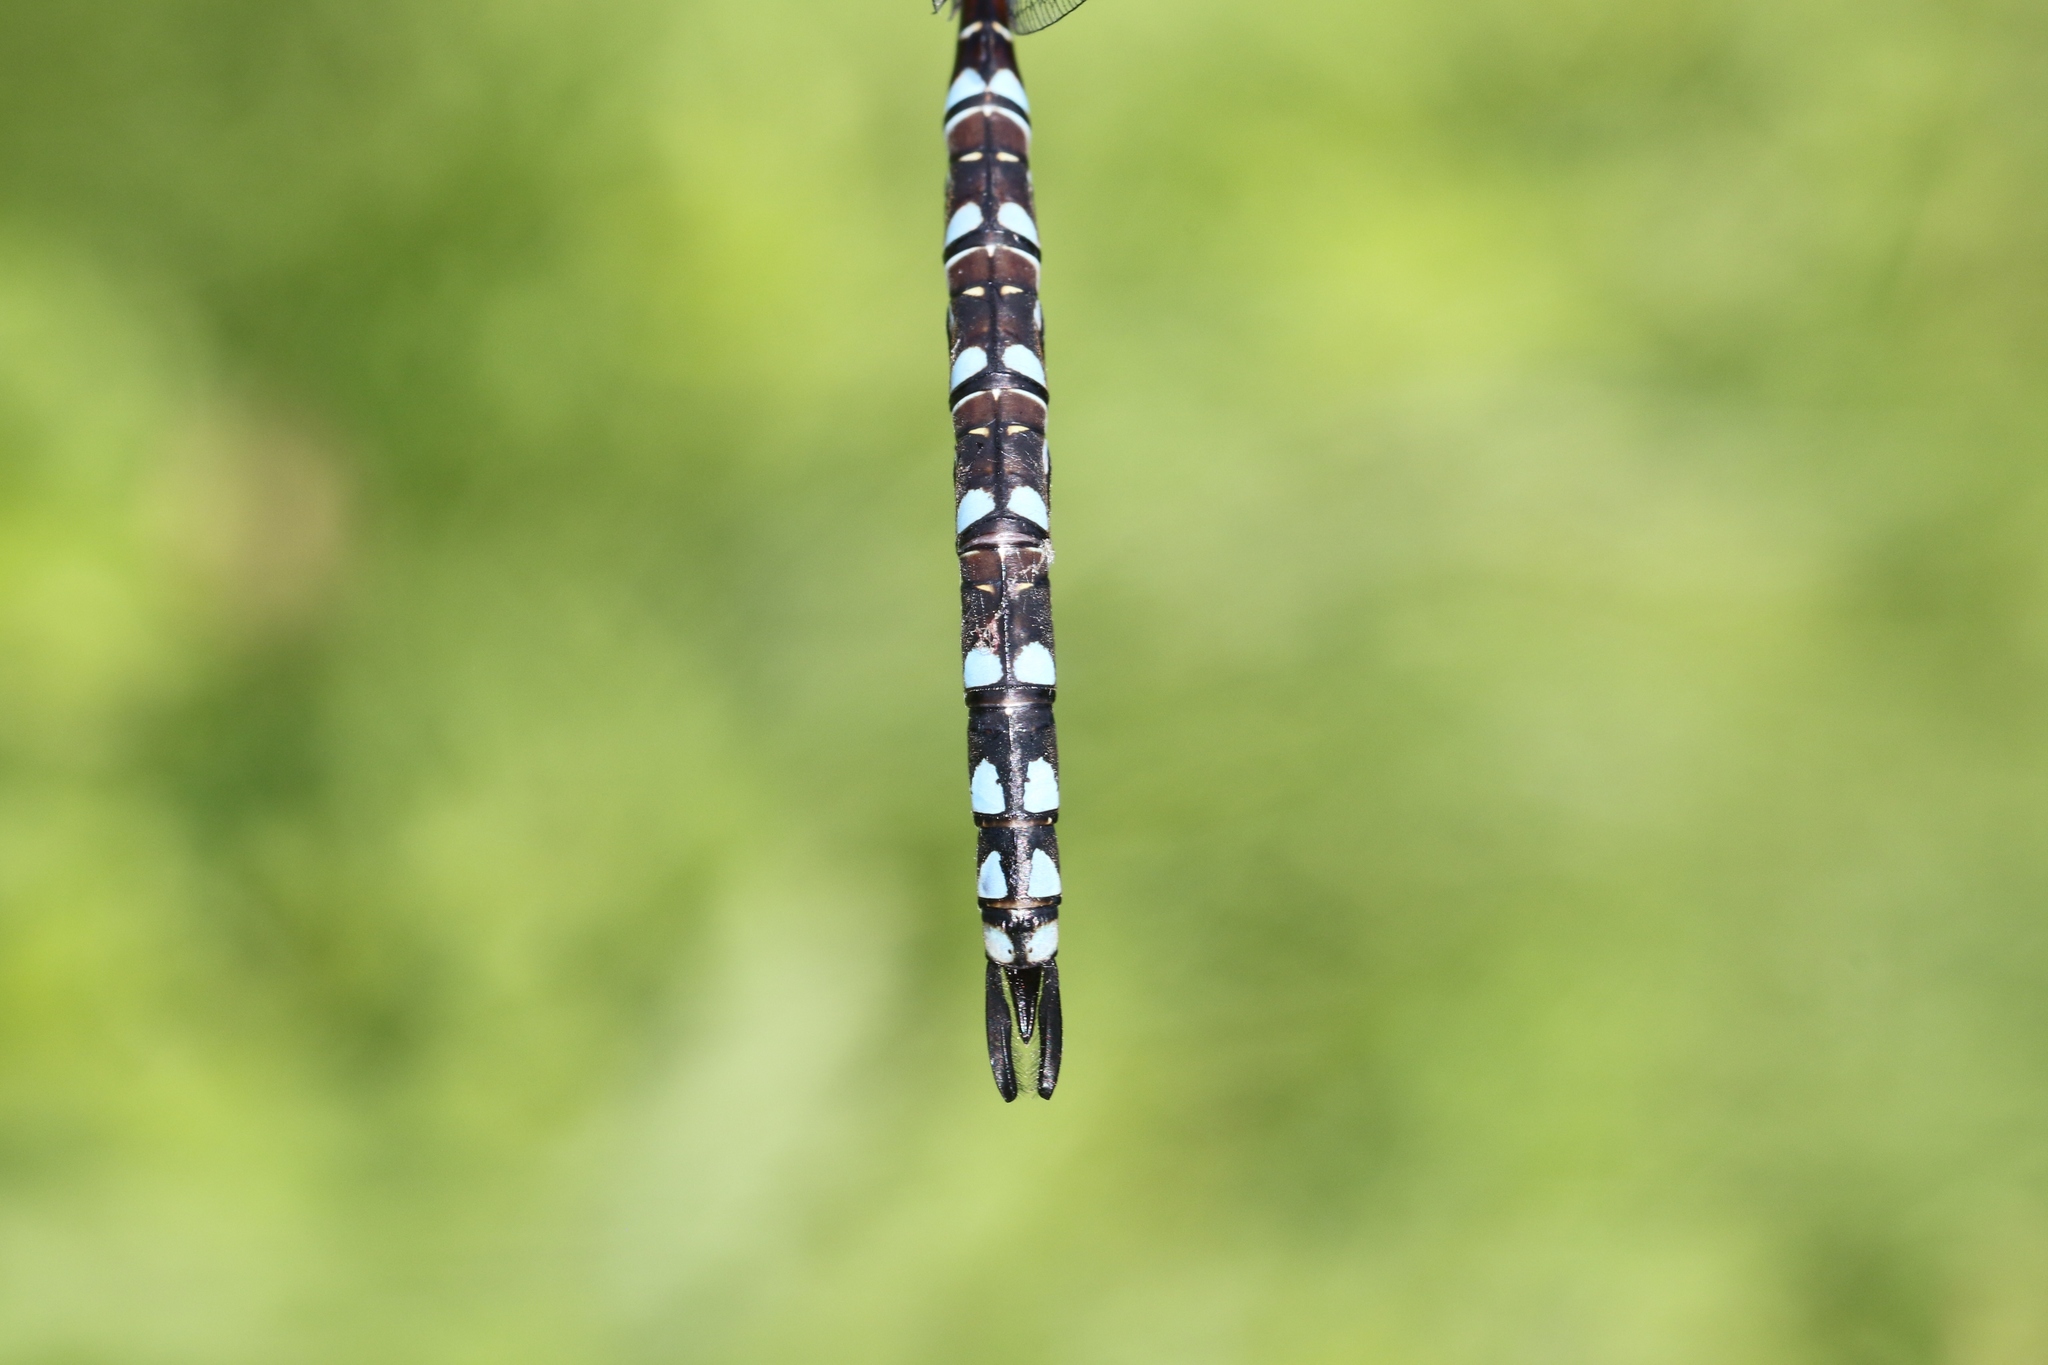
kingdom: Animalia
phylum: Arthropoda
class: Insecta
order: Odonata
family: Aeshnidae
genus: Aeshna
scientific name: Aeshna canadensis
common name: Canada darner
